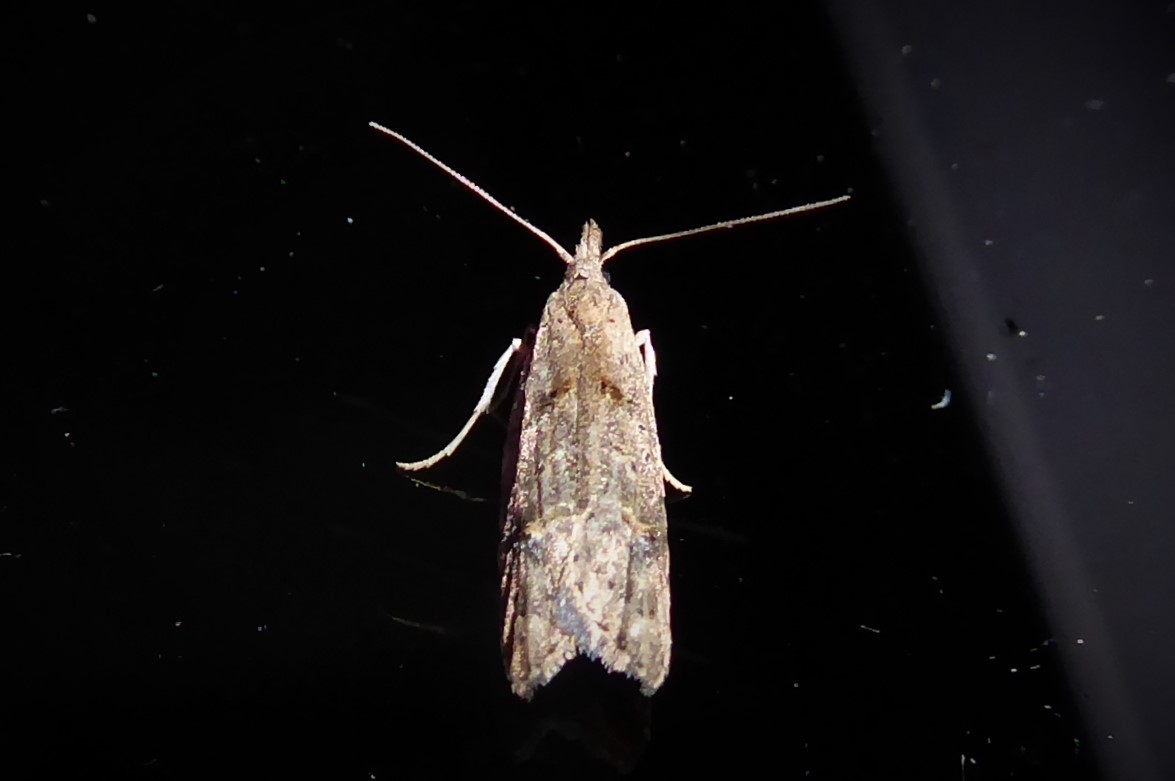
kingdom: Animalia
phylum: Arthropoda
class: Insecta
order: Lepidoptera
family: Carposinidae
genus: Carposina
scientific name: Carposina
